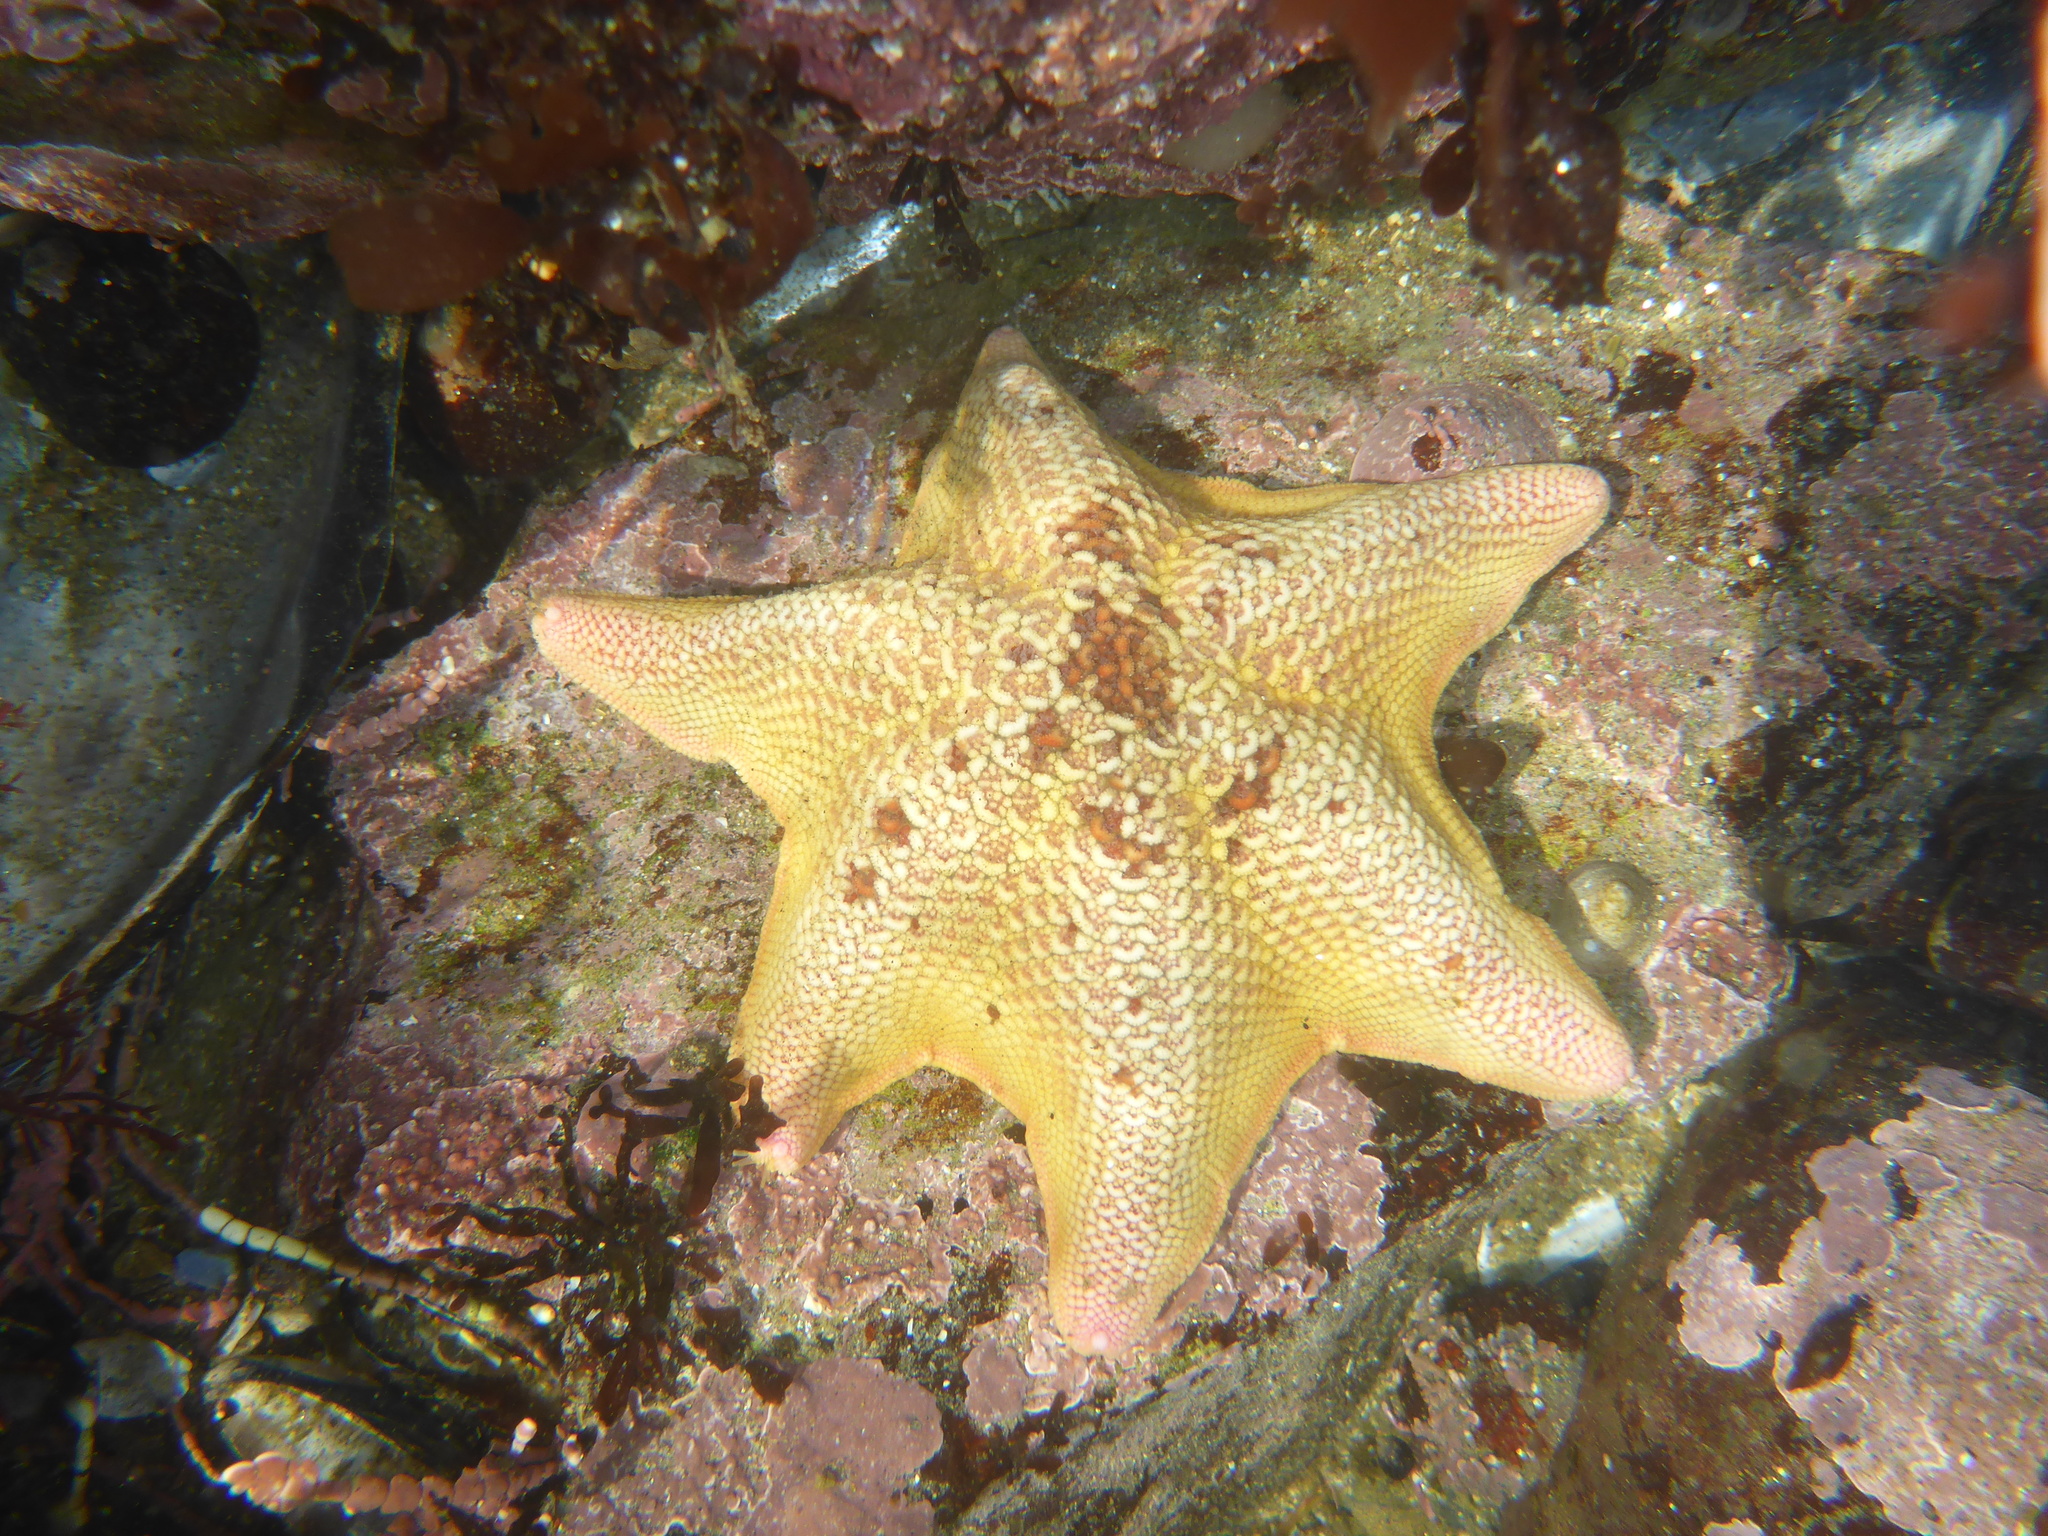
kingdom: Animalia
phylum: Echinodermata
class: Asteroidea
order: Valvatida
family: Asterinidae
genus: Patiria
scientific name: Patiria miniata
